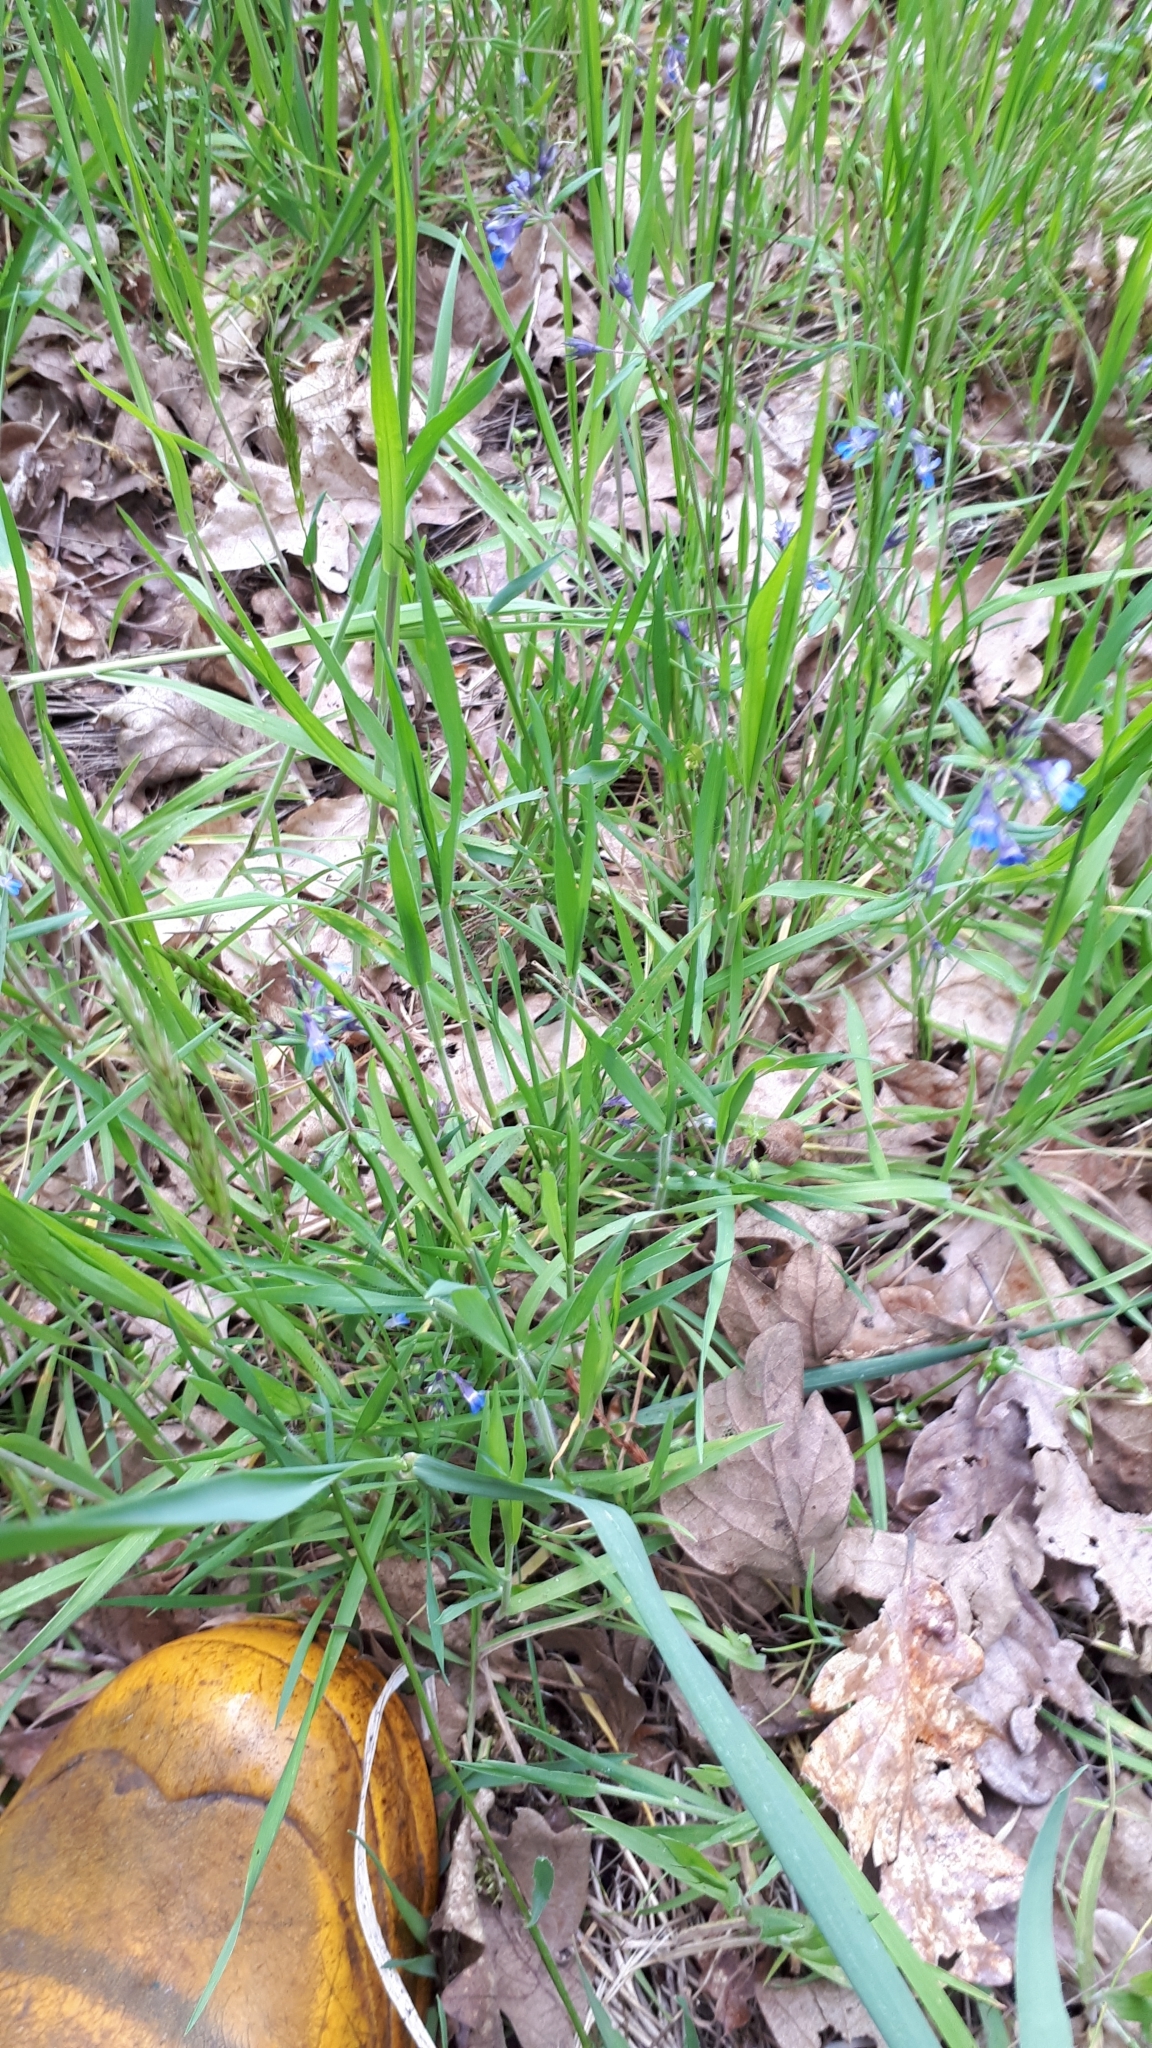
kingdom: Plantae
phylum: Tracheophyta
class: Magnoliopsida
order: Lamiales
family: Plantaginaceae
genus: Collinsia
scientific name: Collinsia grandiflora
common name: Large-flower blue-eyed-mary
